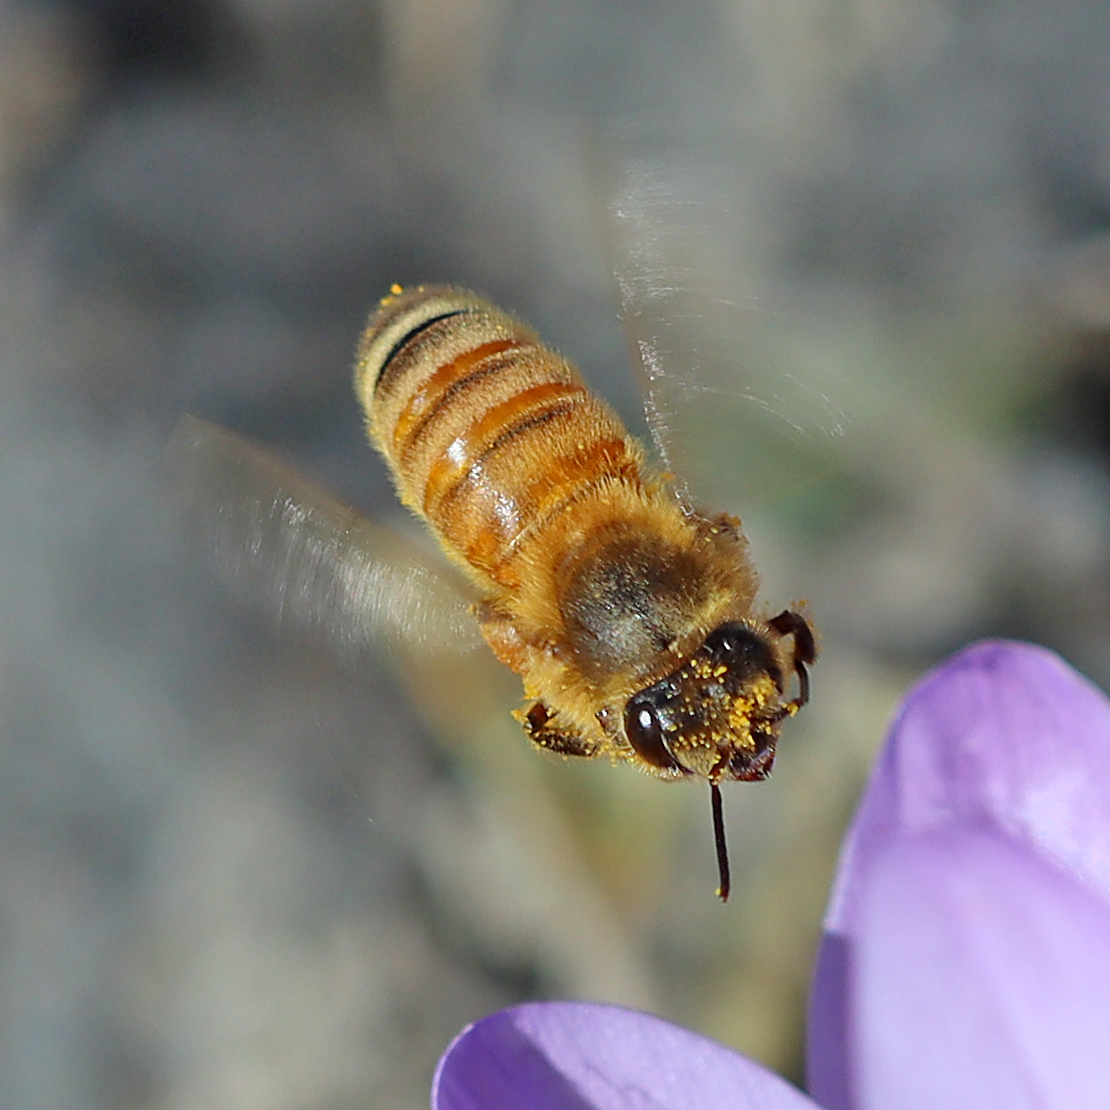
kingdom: Animalia
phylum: Arthropoda
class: Insecta
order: Hymenoptera
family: Apidae
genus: Apis
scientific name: Apis mellifera
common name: Honey bee
